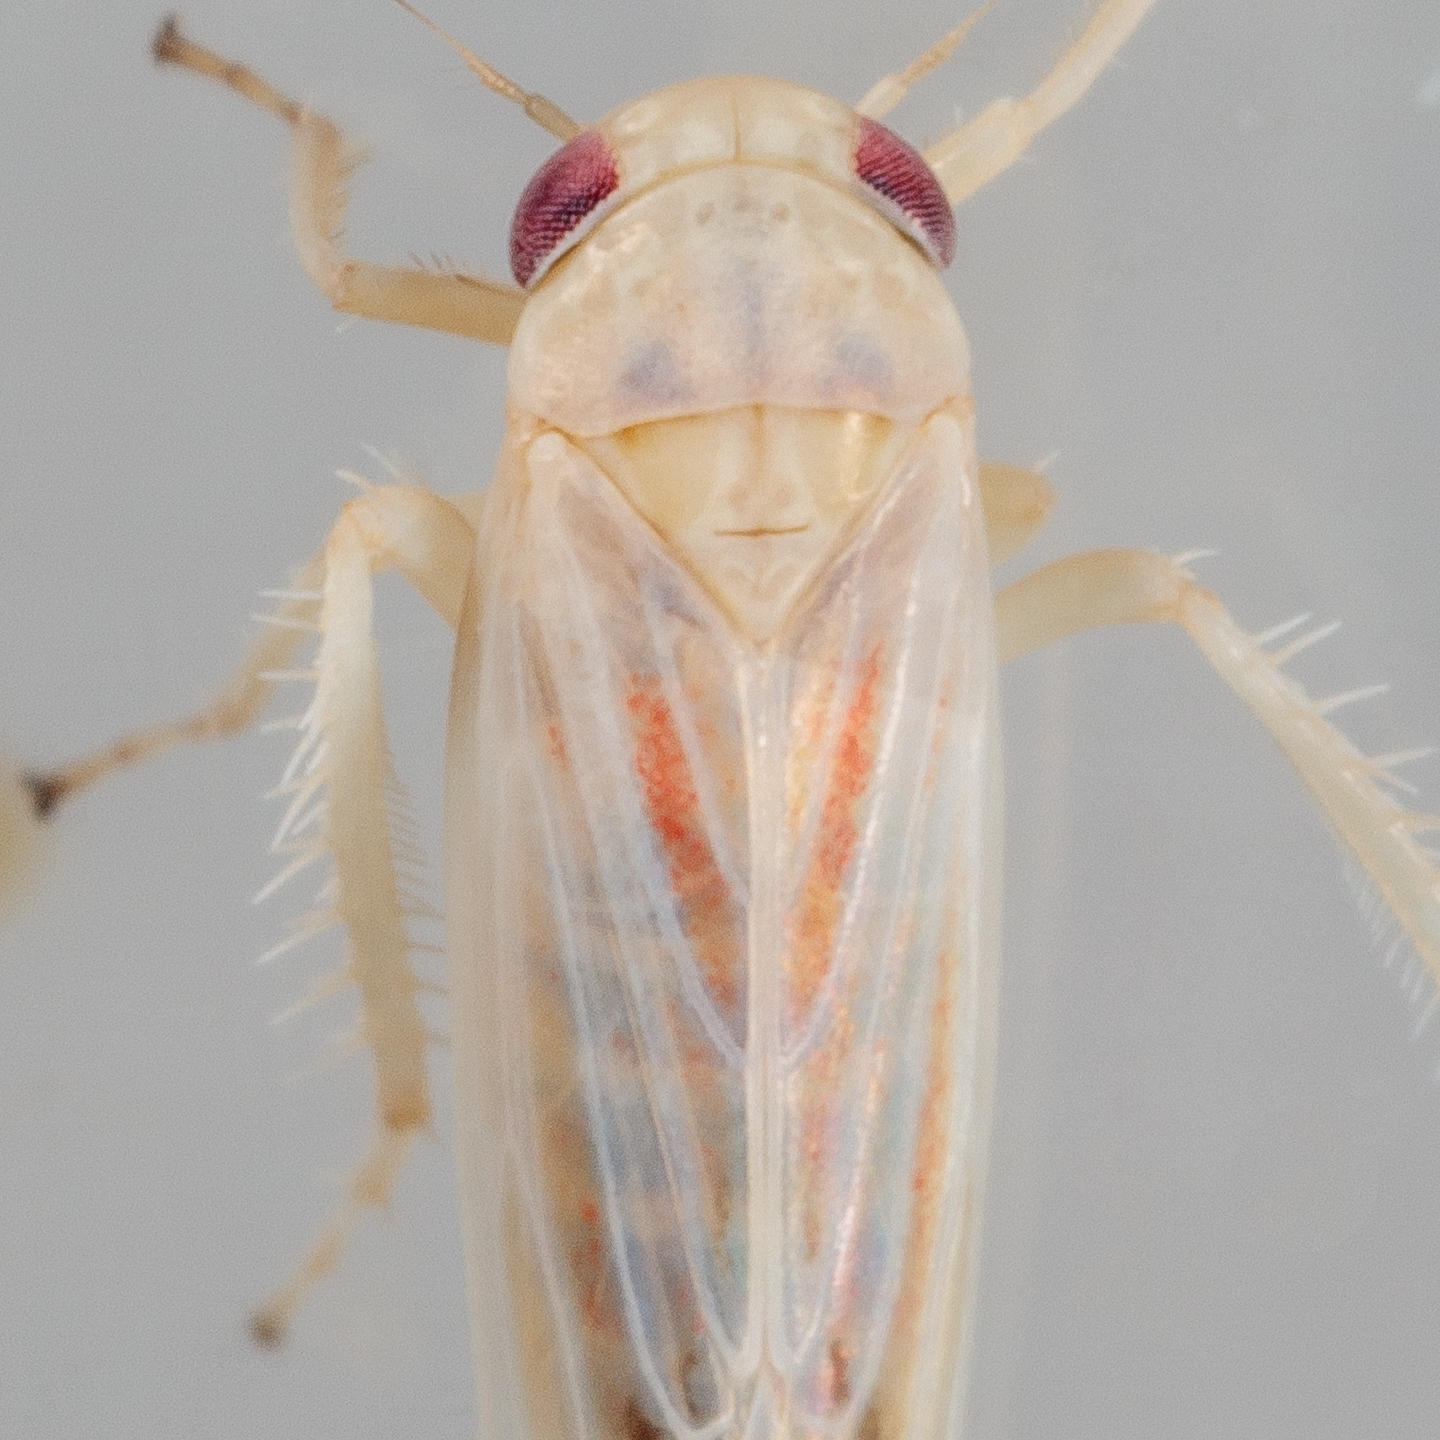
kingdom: Animalia
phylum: Arthropoda
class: Insecta
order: Hemiptera
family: Cicadellidae
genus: Balclutha
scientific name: Balclutha rubrostriata
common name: Red-streaked leafhopper
